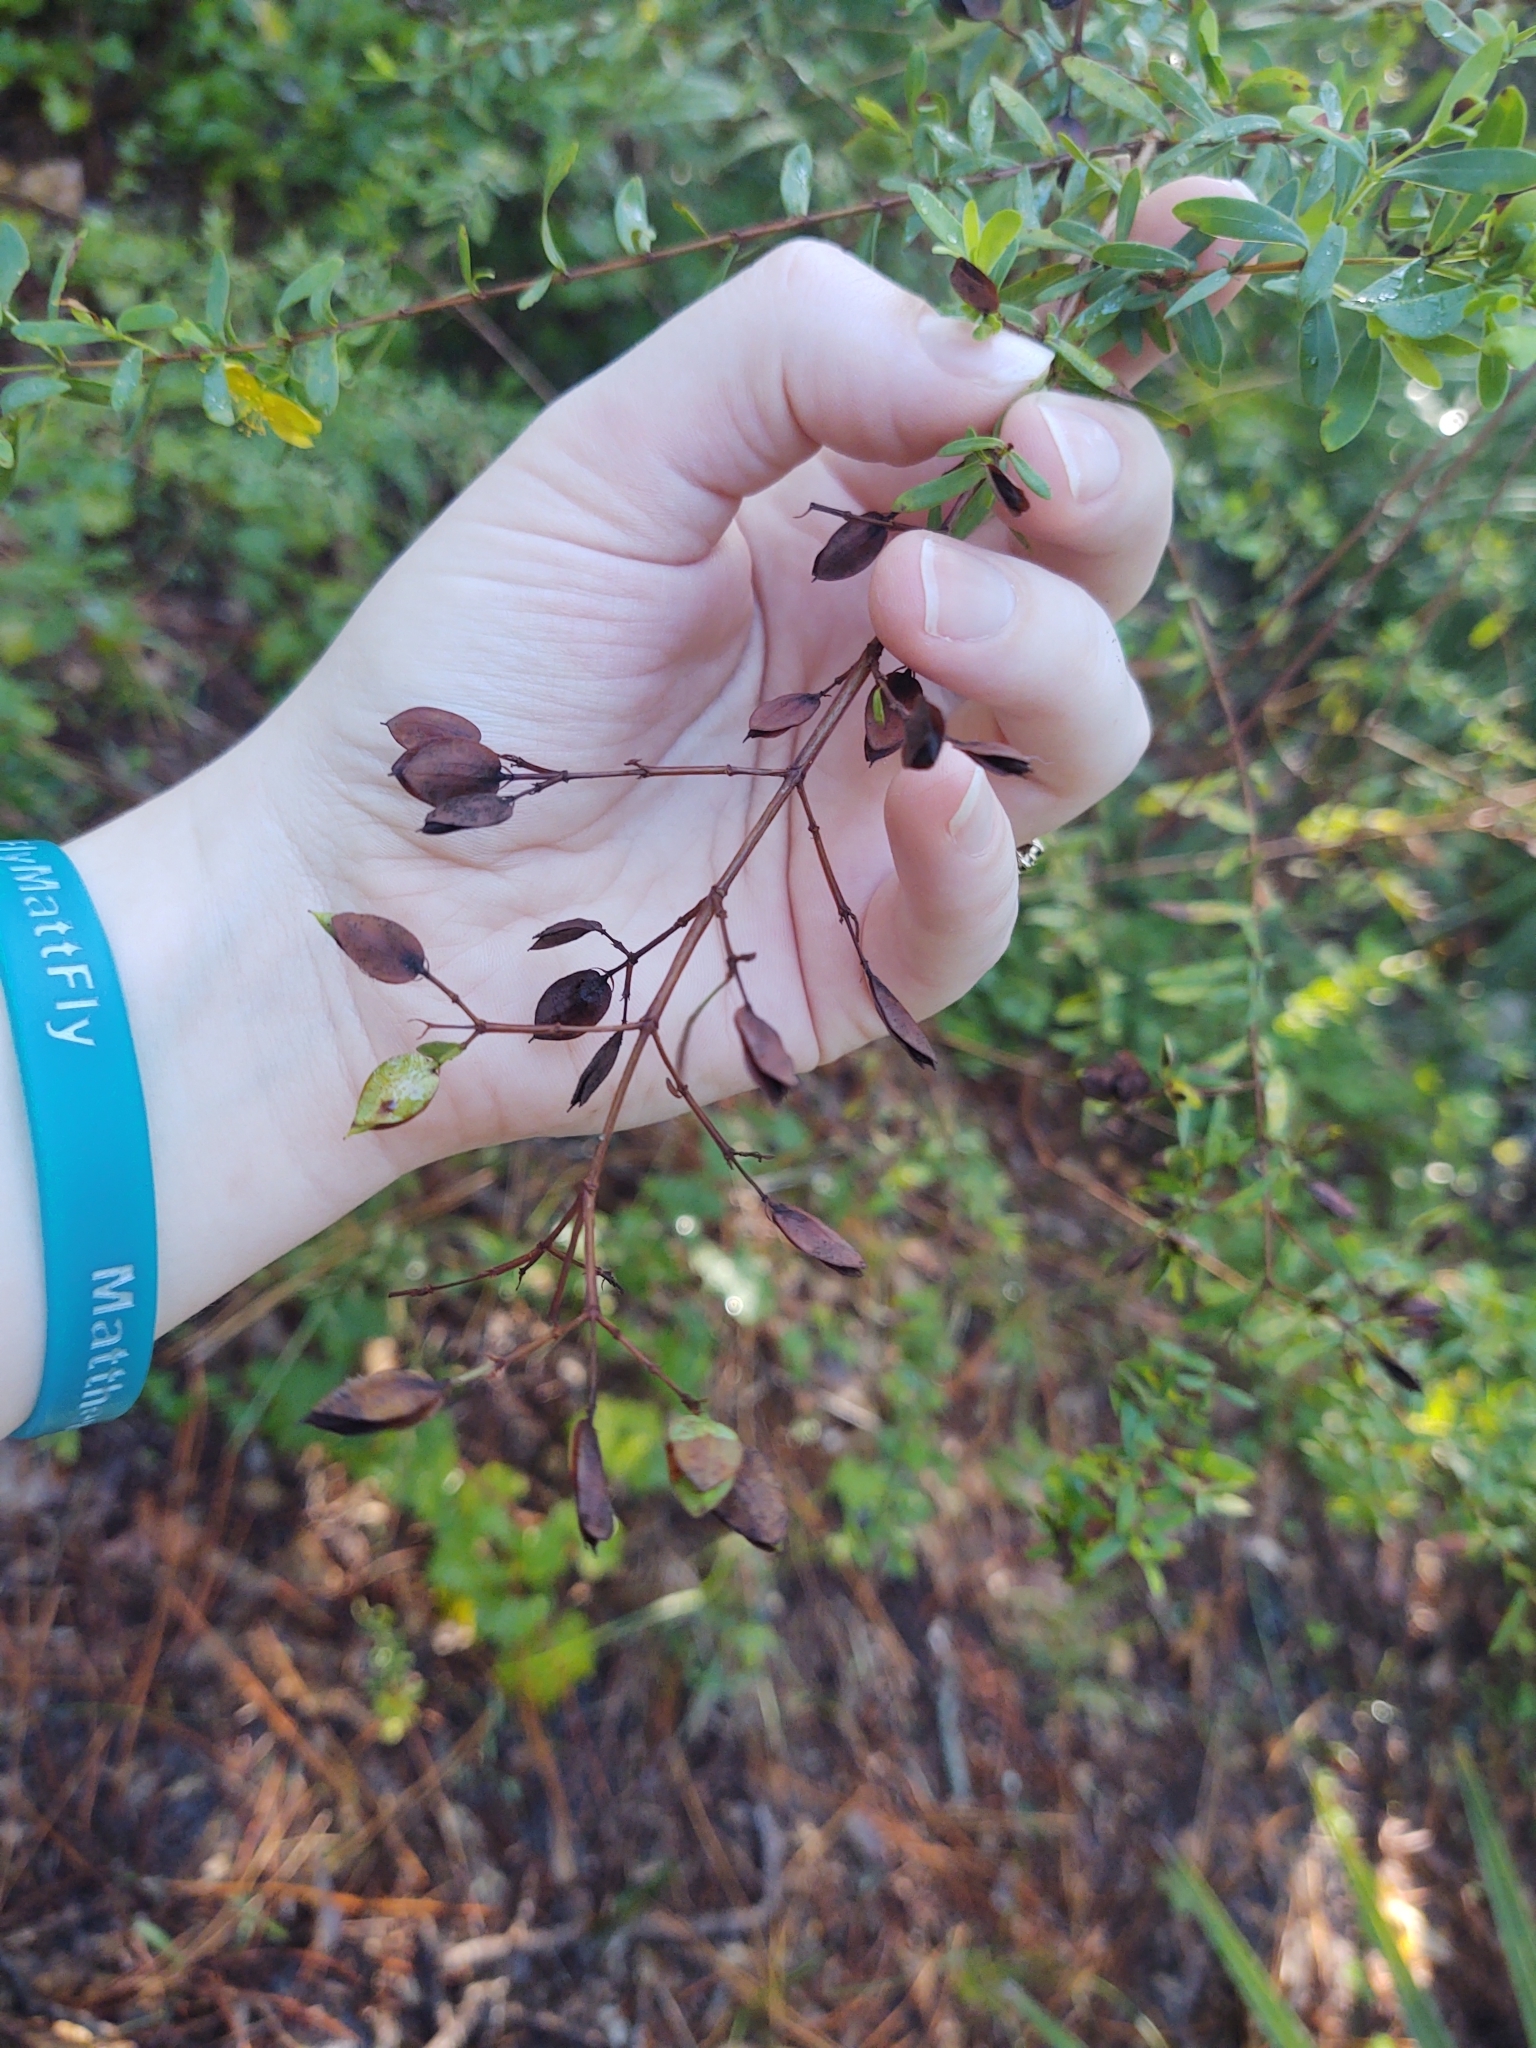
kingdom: Plantae
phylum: Tracheophyta
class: Magnoliopsida
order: Malpighiales
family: Hypericaceae
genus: Hypericum
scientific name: Hypericum hypericoides
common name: St. andrew's cross
